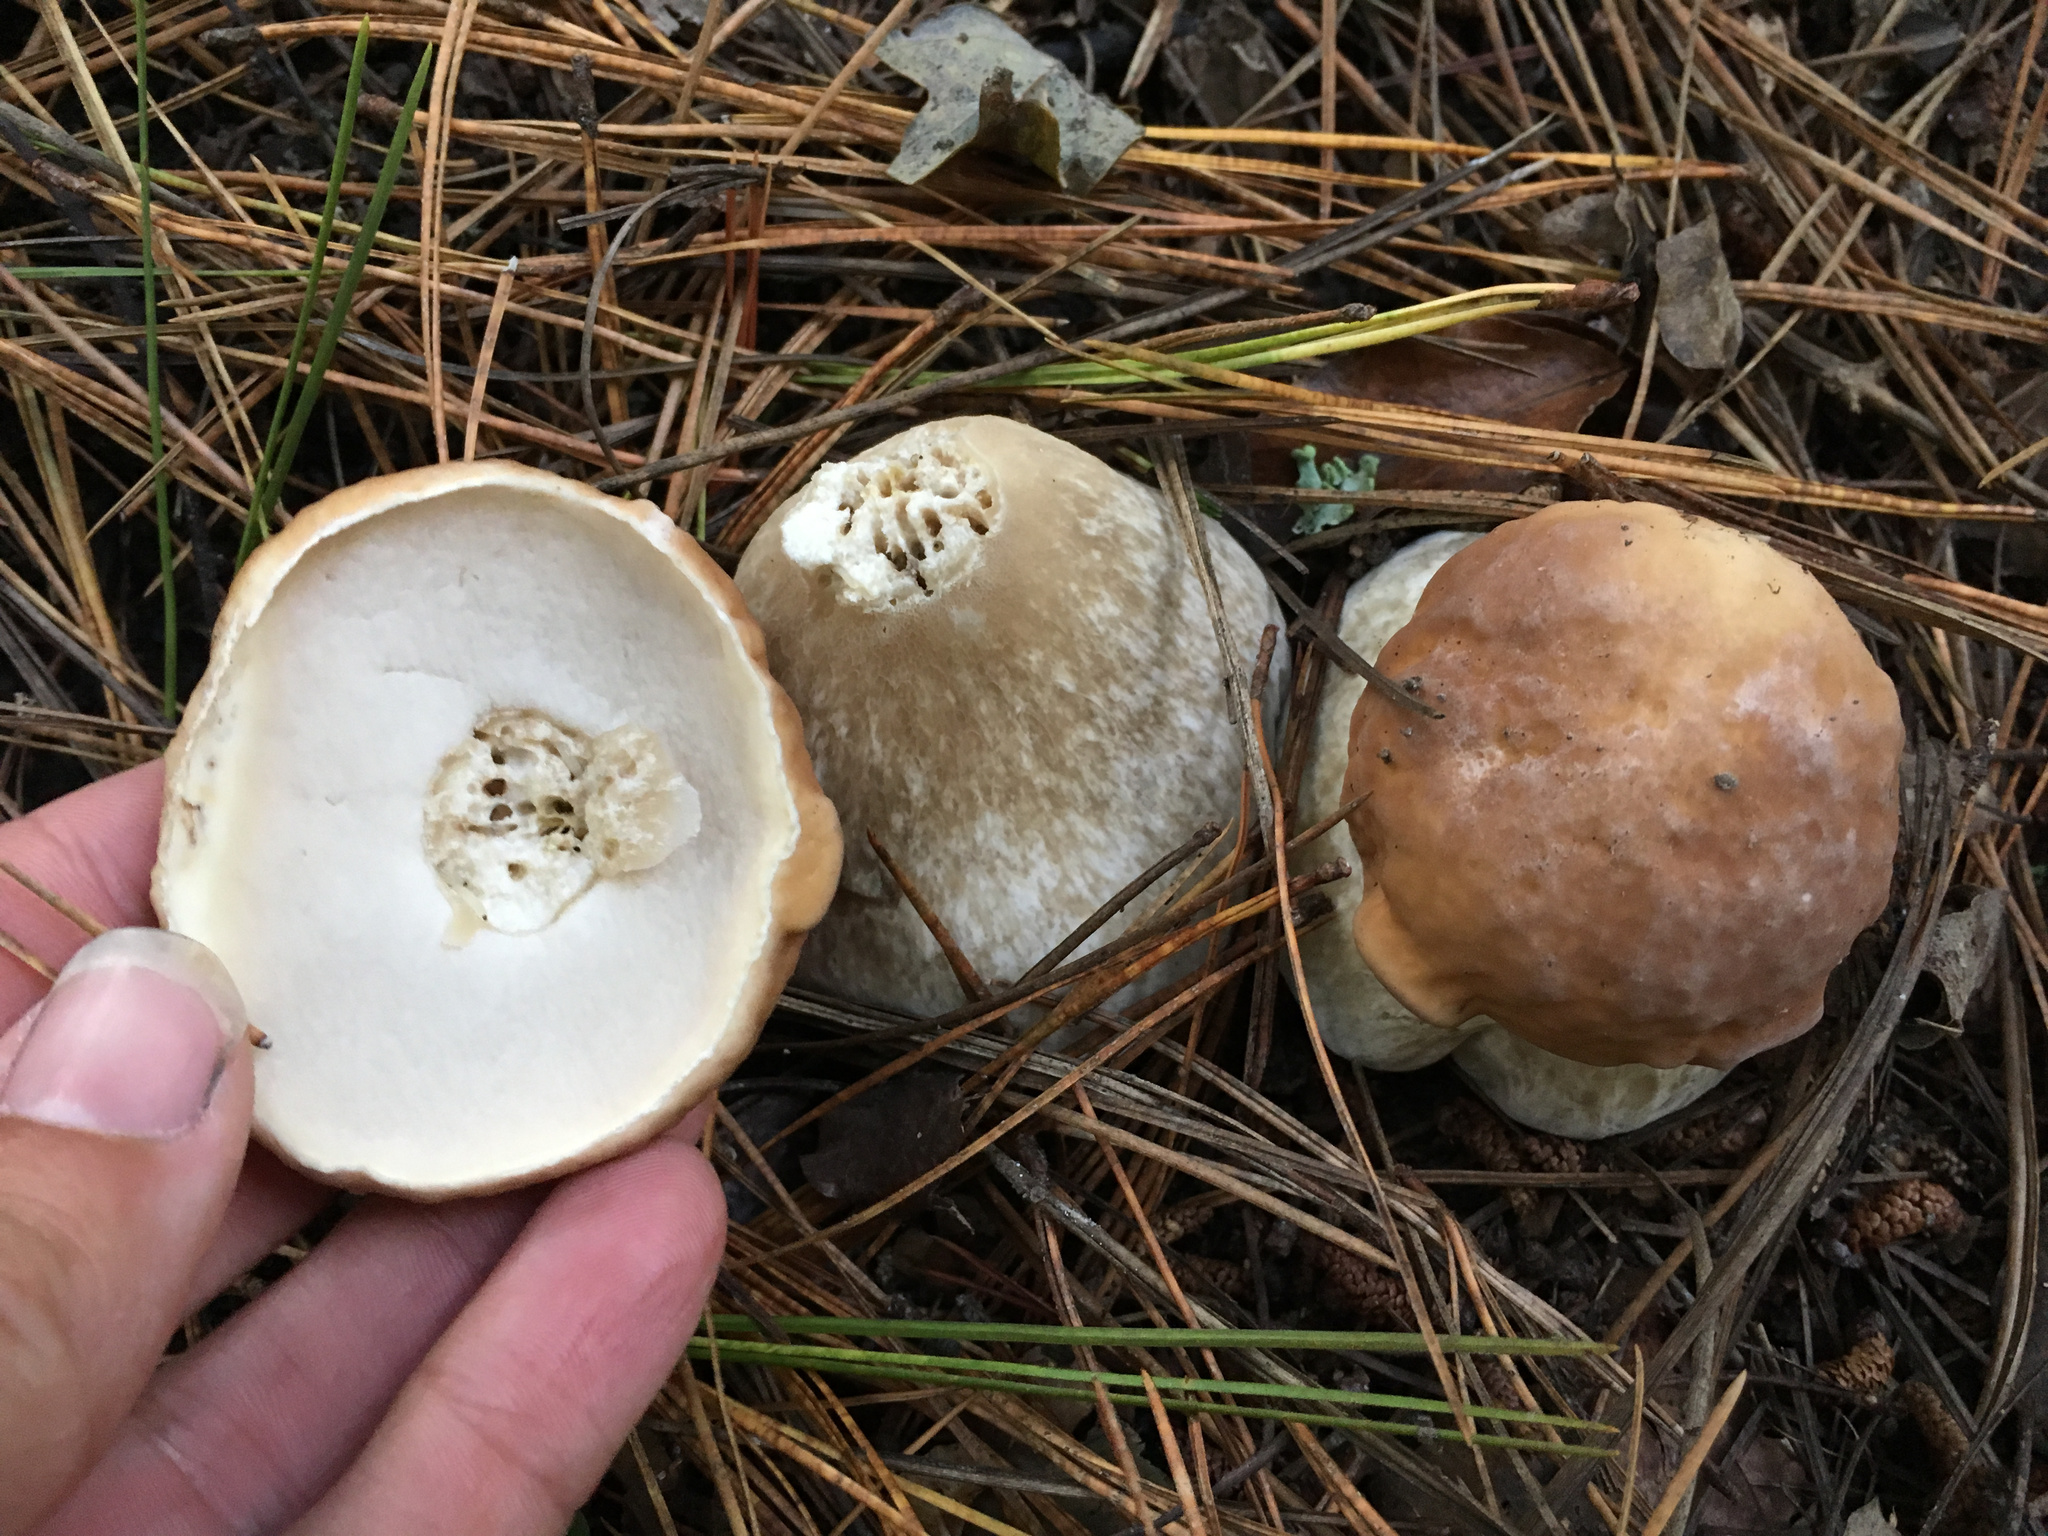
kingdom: Fungi
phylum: Basidiomycota
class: Agaricomycetes
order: Boletales
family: Boletaceae
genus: Boletus
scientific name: Boletus edulis
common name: Cep
